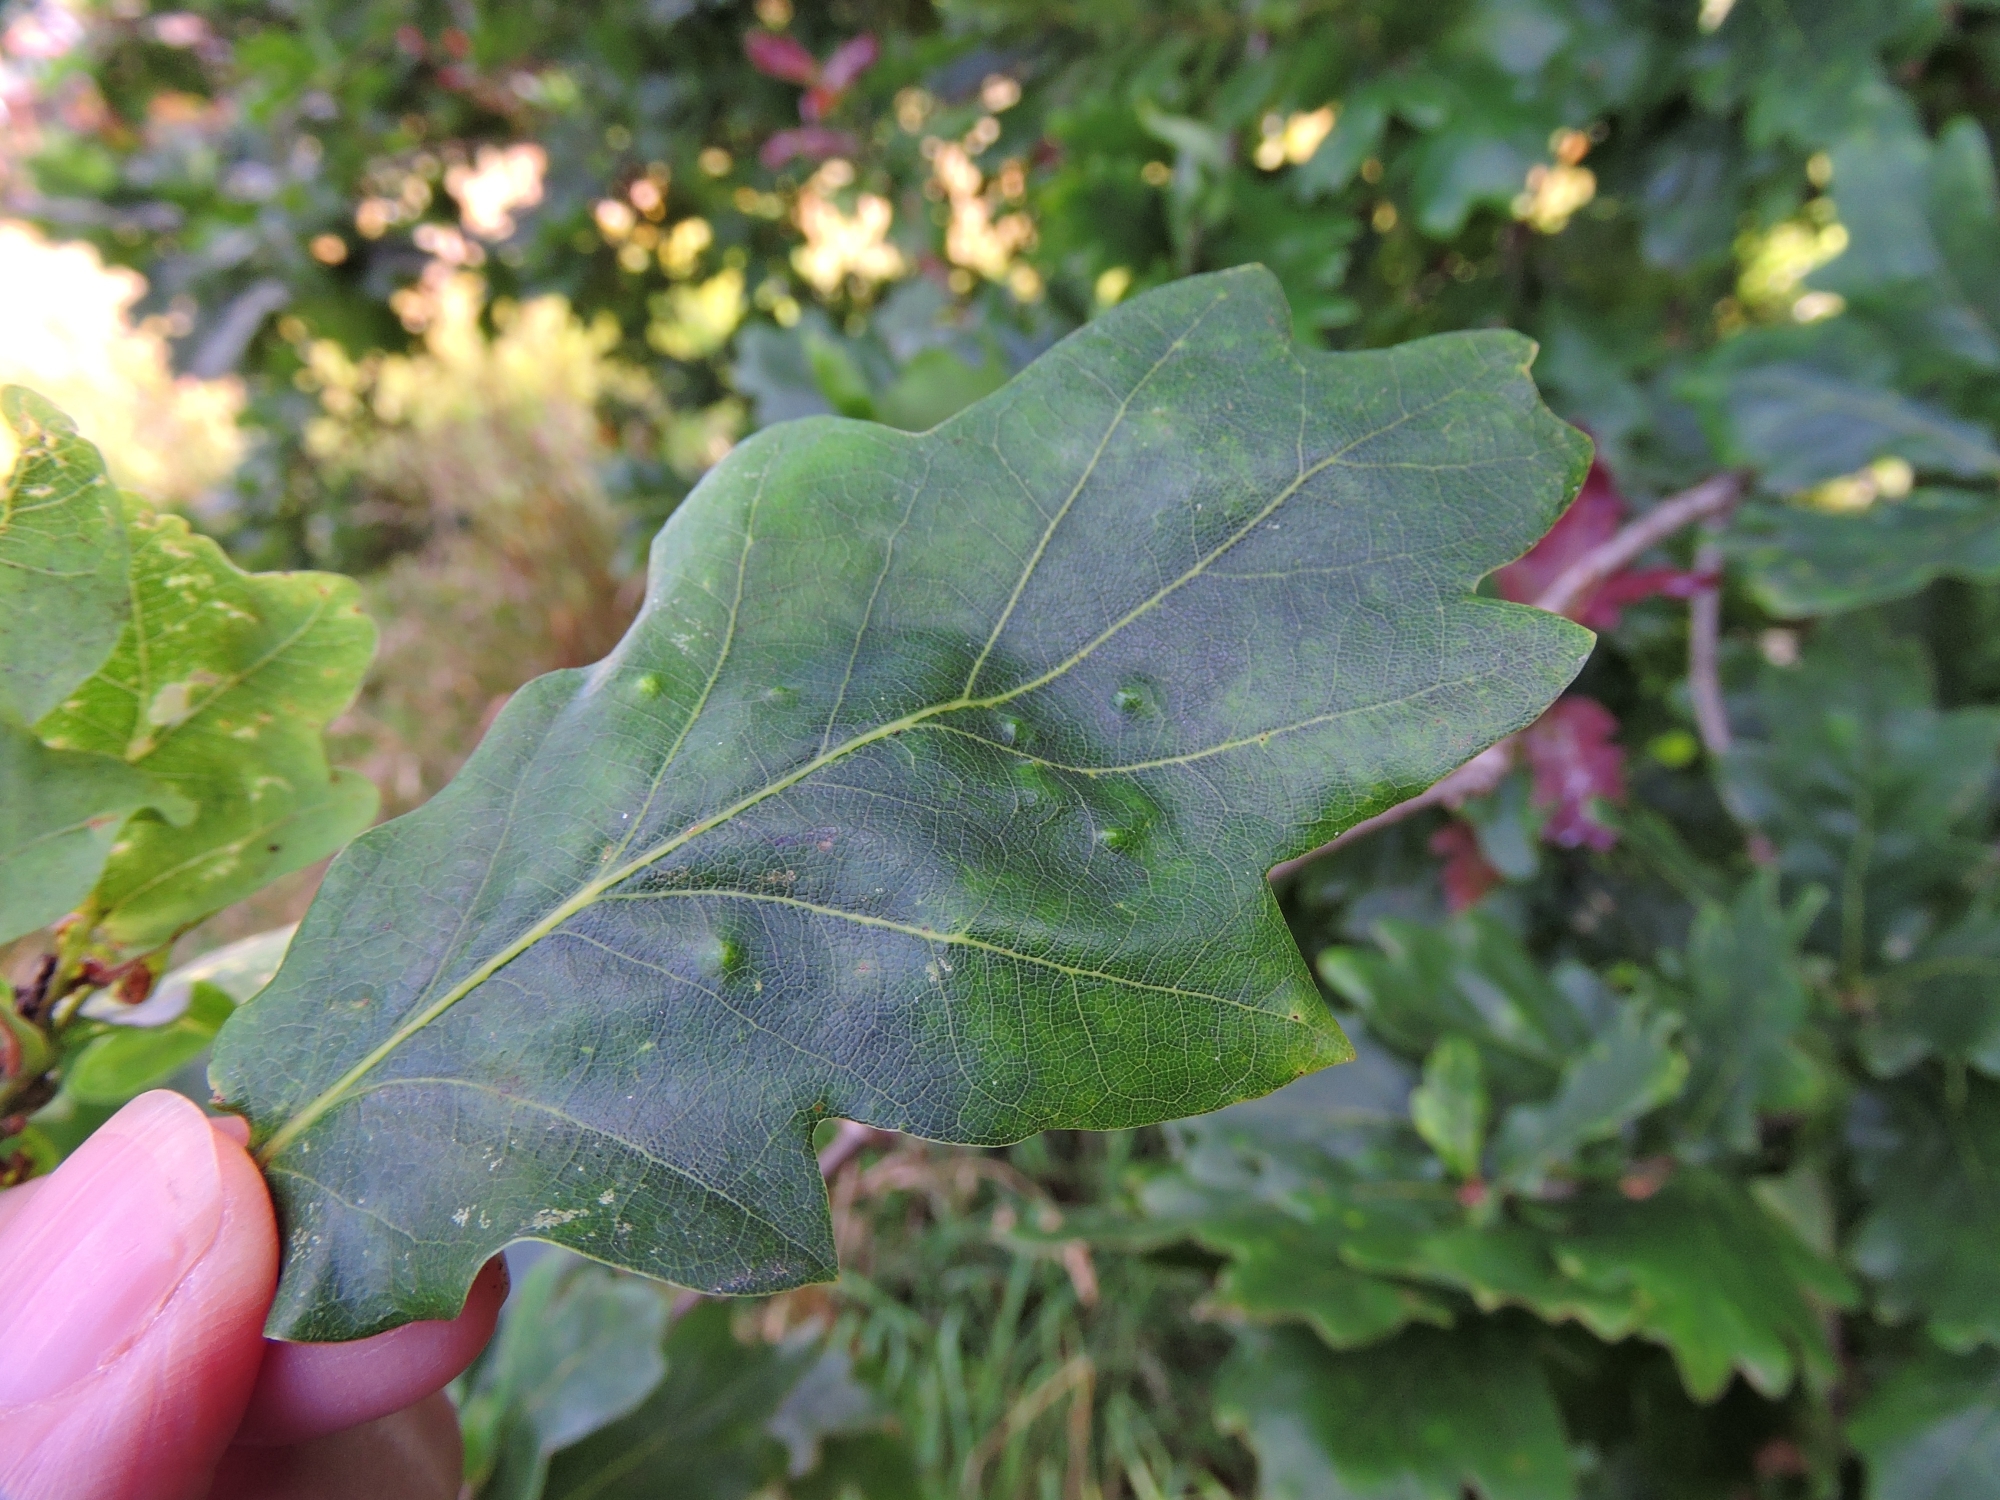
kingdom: Animalia
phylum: Arthropoda
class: Insecta
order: Hemiptera
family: Triozidae
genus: Trioza
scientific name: Trioza remota
